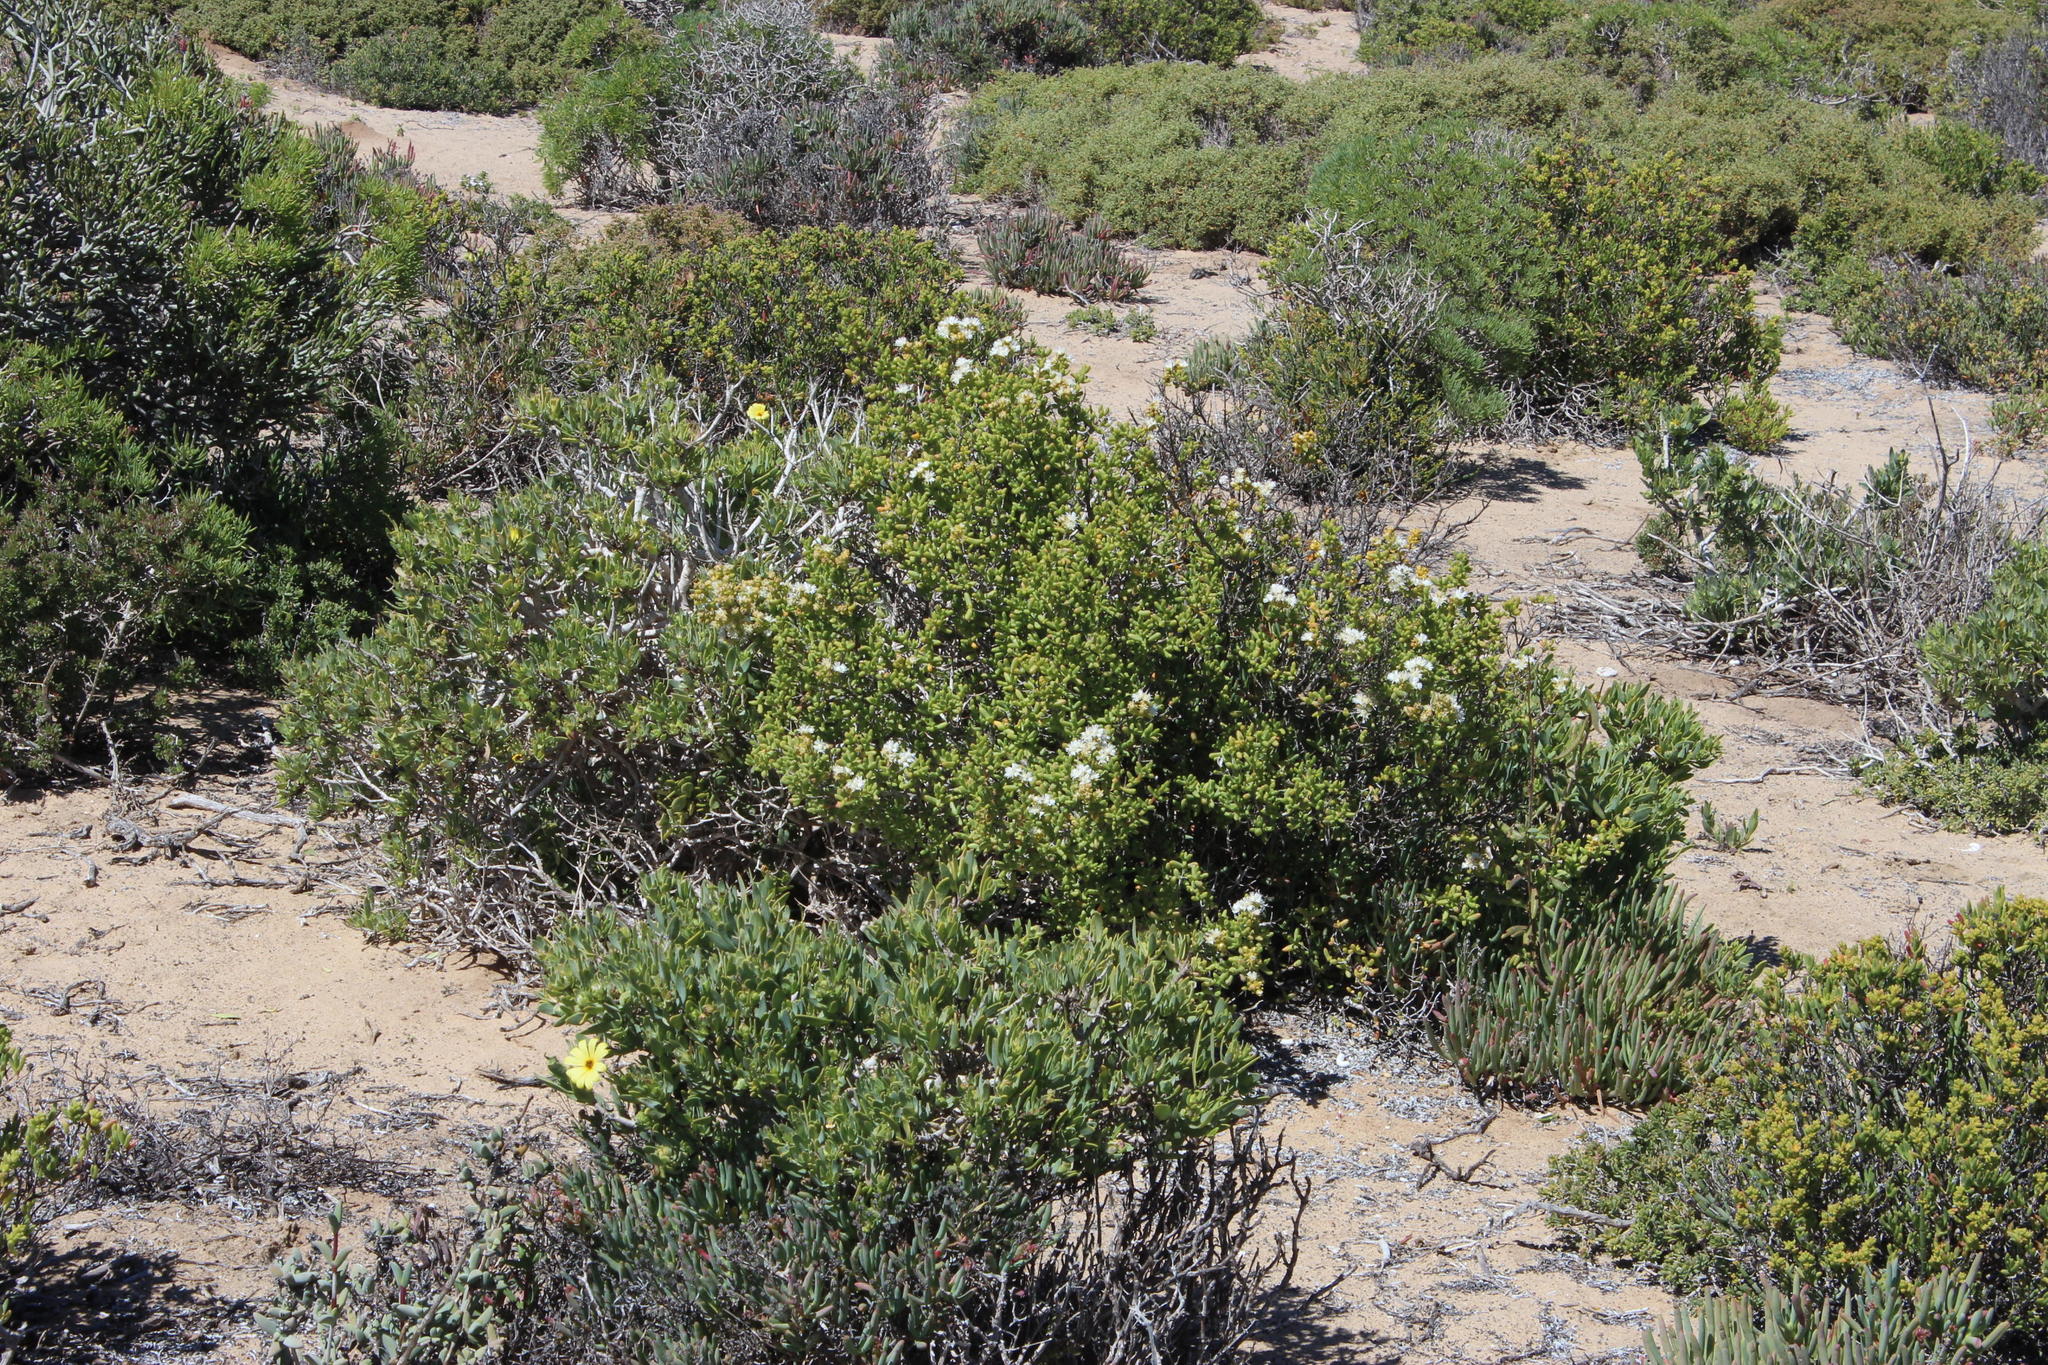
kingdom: Plantae
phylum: Tracheophyta
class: Magnoliopsida
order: Caryophyllales
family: Aizoaceae
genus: Stoeberia
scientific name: Stoeberia utilis
